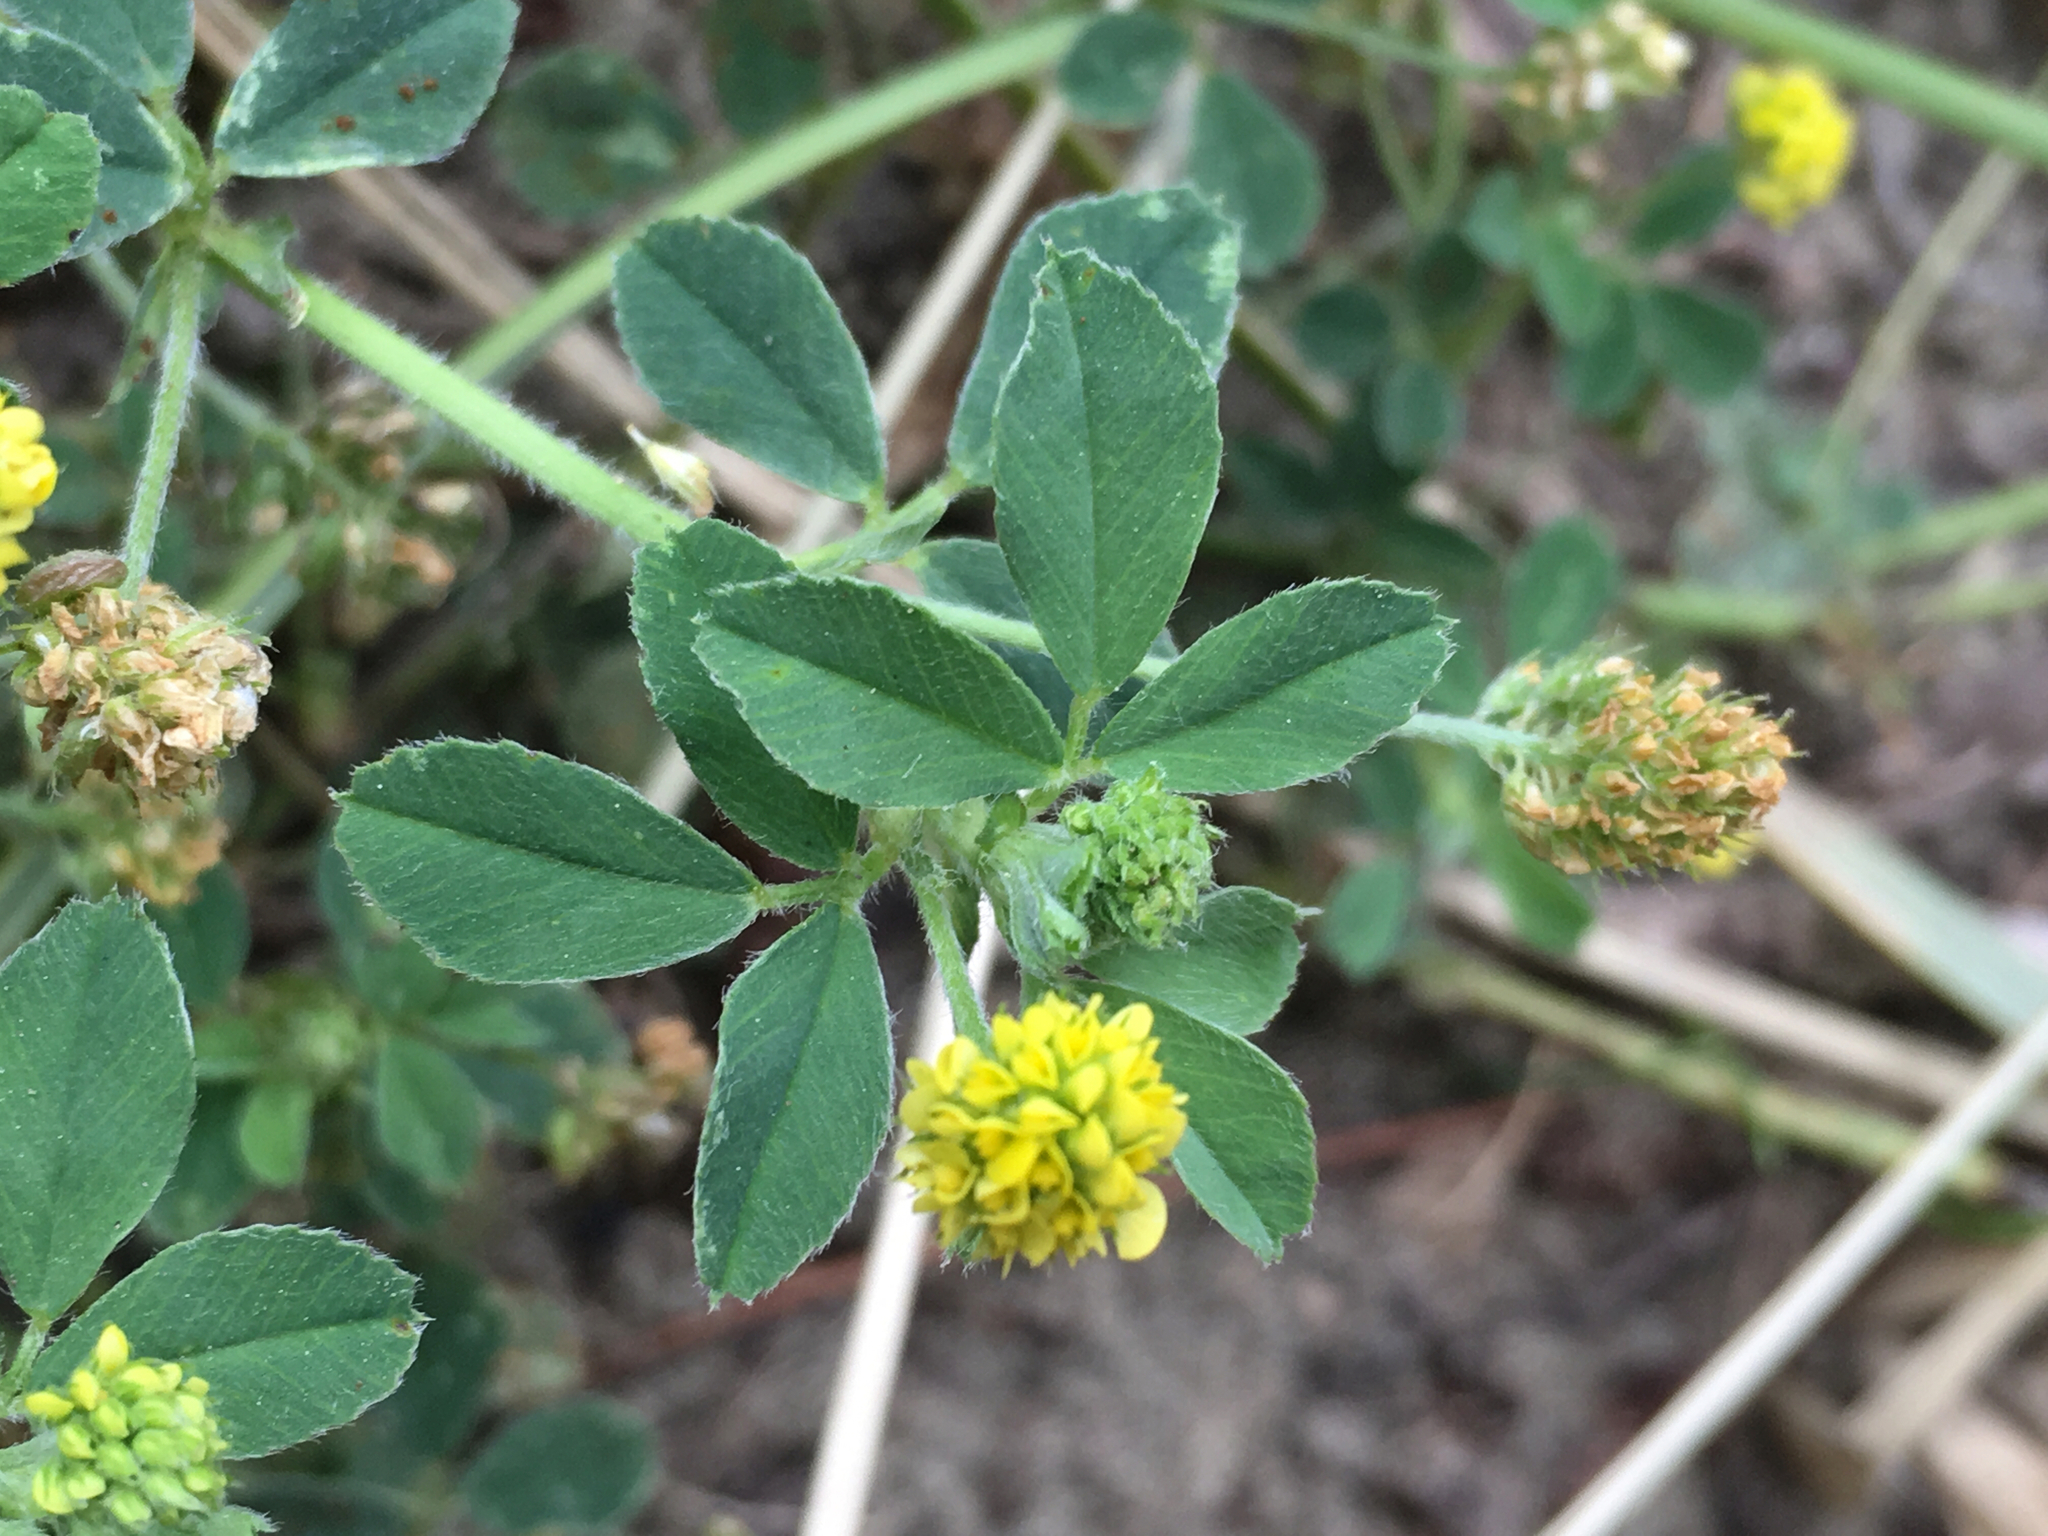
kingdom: Plantae
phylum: Tracheophyta
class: Magnoliopsida
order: Fabales
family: Fabaceae
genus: Medicago
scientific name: Medicago lupulina
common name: Black medick
